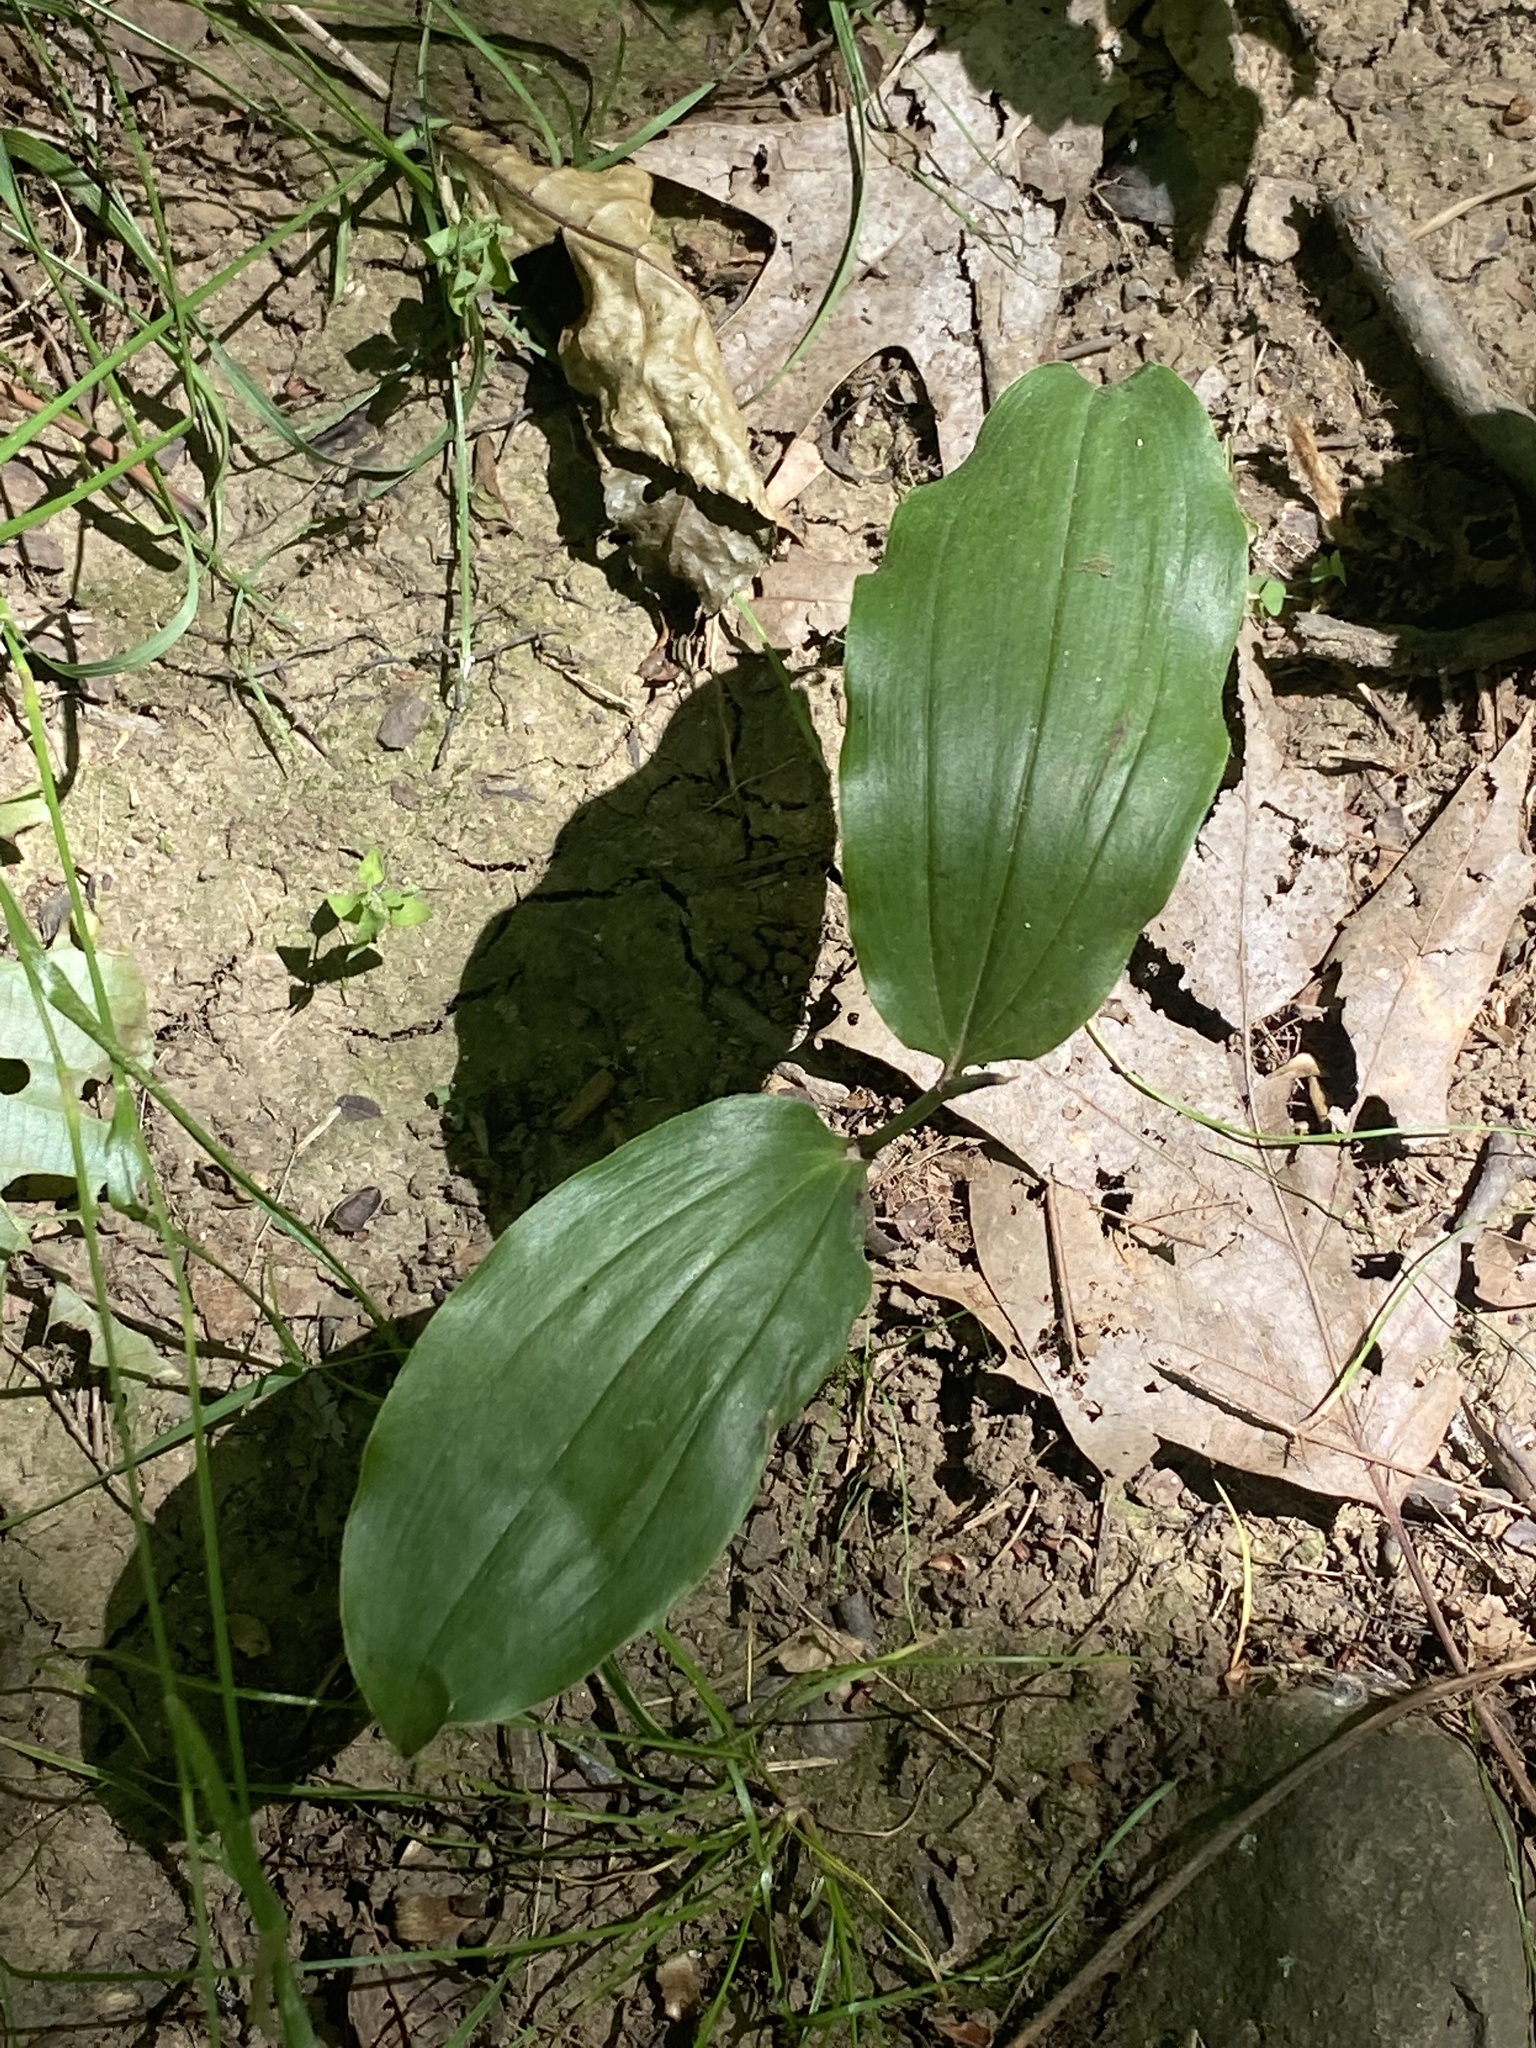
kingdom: Plantae
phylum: Tracheophyta
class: Liliopsida
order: Asparagales
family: Asparagaceae
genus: Maianthemum
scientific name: Maianthemum racemosum
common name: False spikenard
